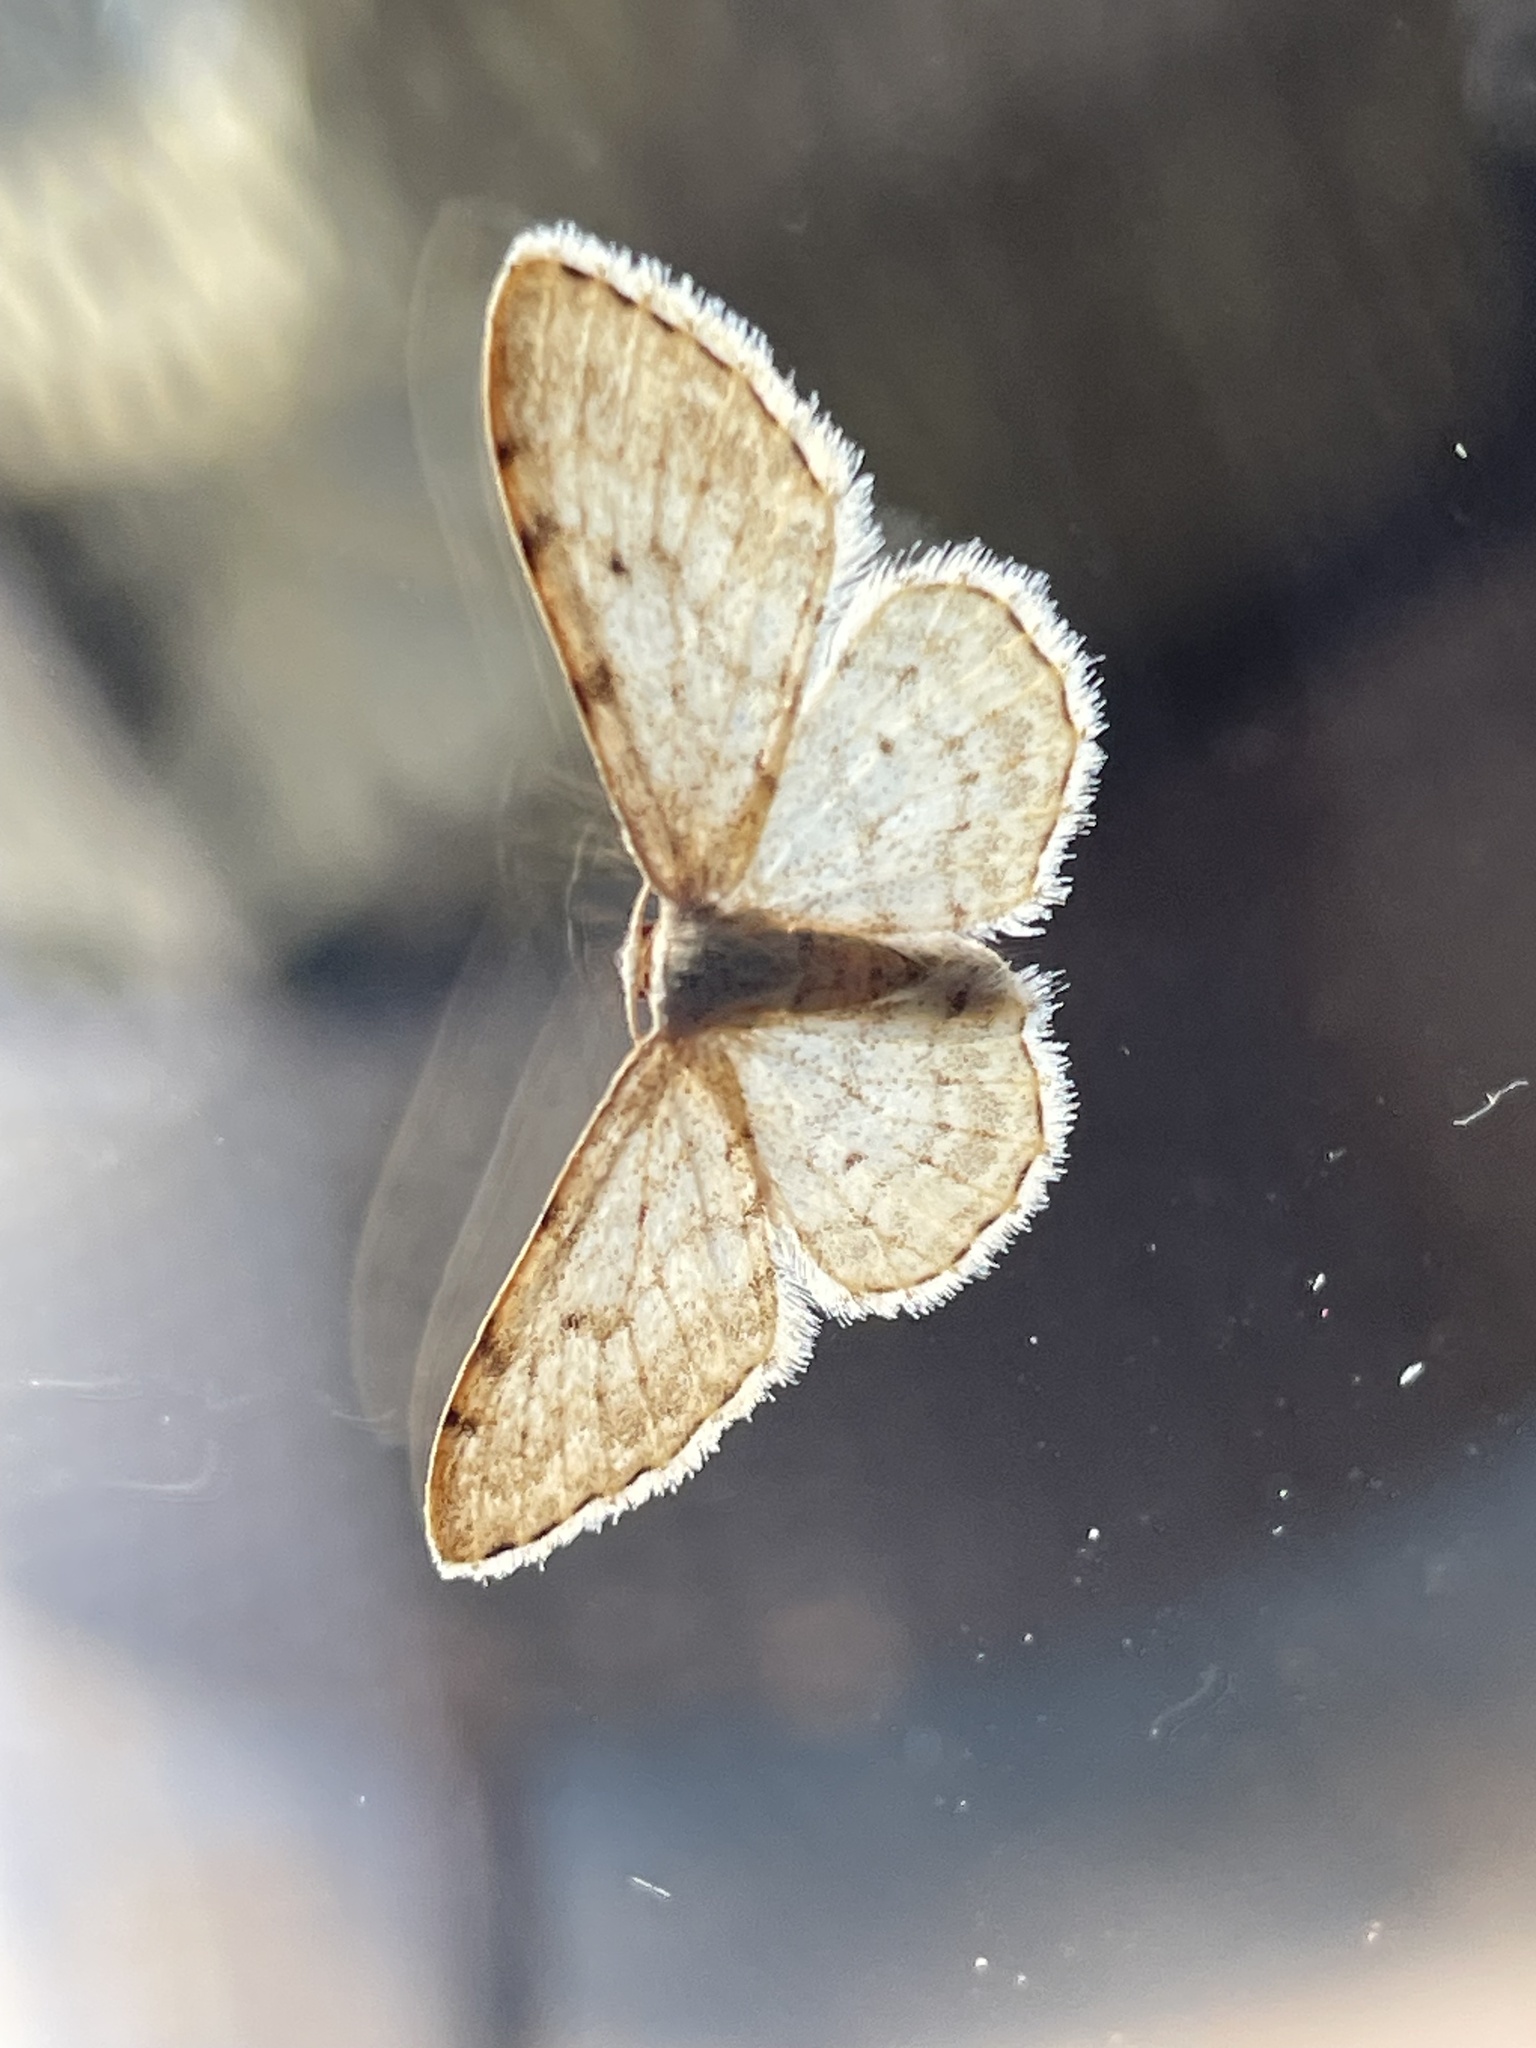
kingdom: Animalia
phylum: Arthropoda
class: Insecta
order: Lepidoptera
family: Geometridae
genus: Idaea
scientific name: Idaea camparia
